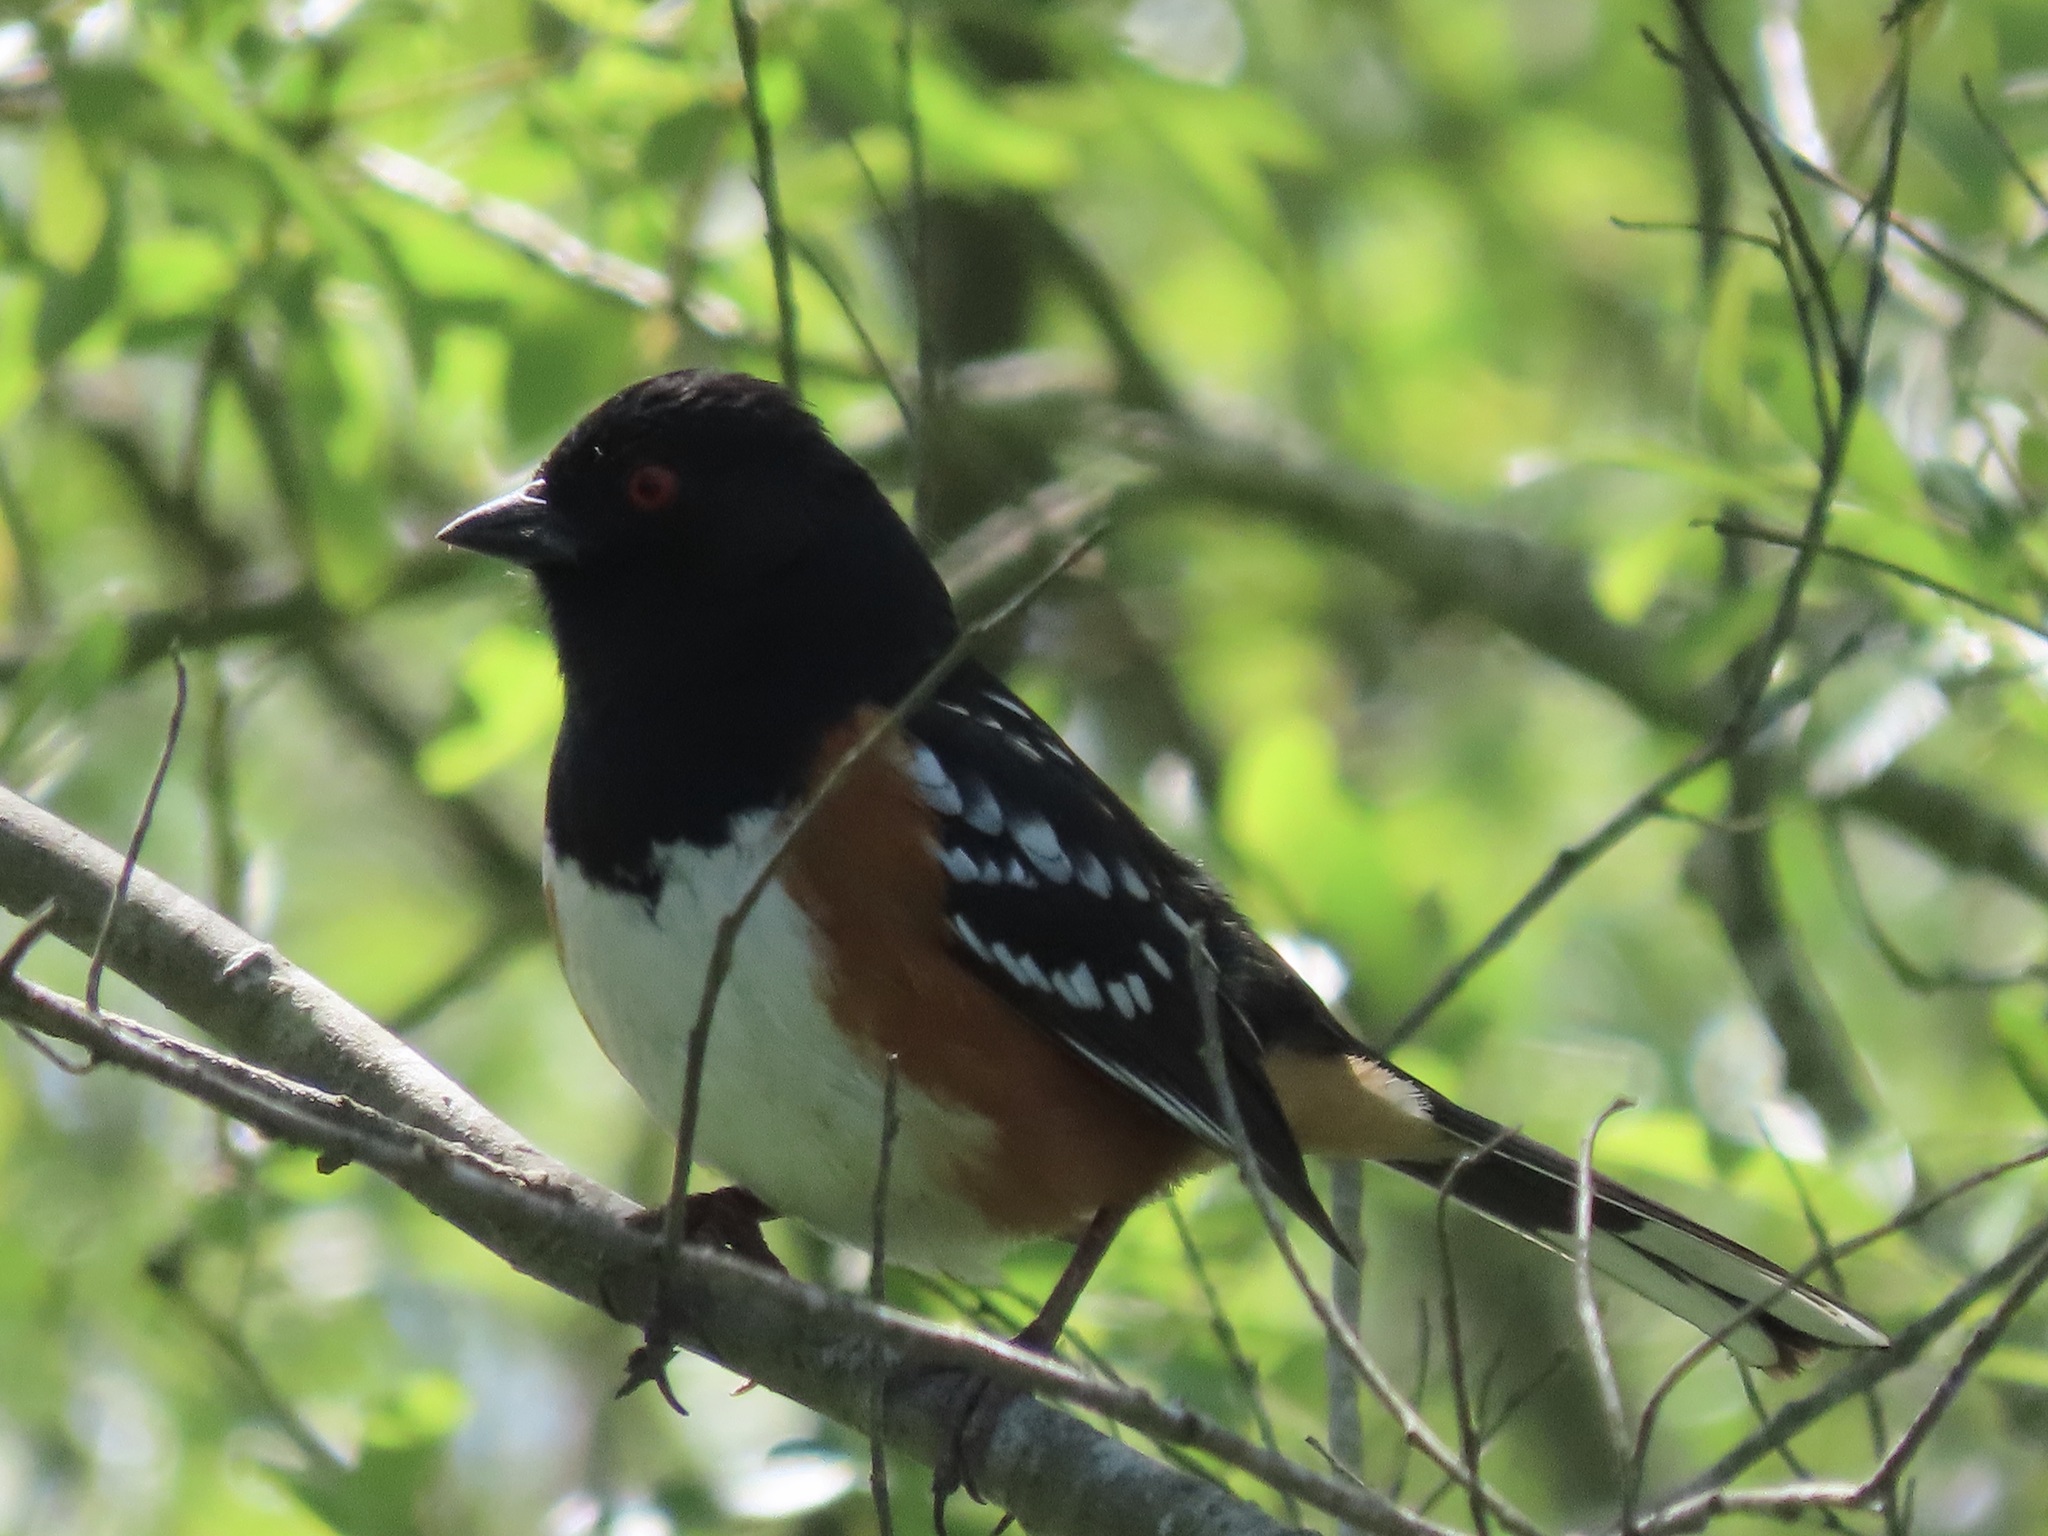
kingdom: Animalia
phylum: Chordata
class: Aves
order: Passeriformes
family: Passerellidae
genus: Pipilo
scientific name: Pipilo maculatus
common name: Spotted towhee
